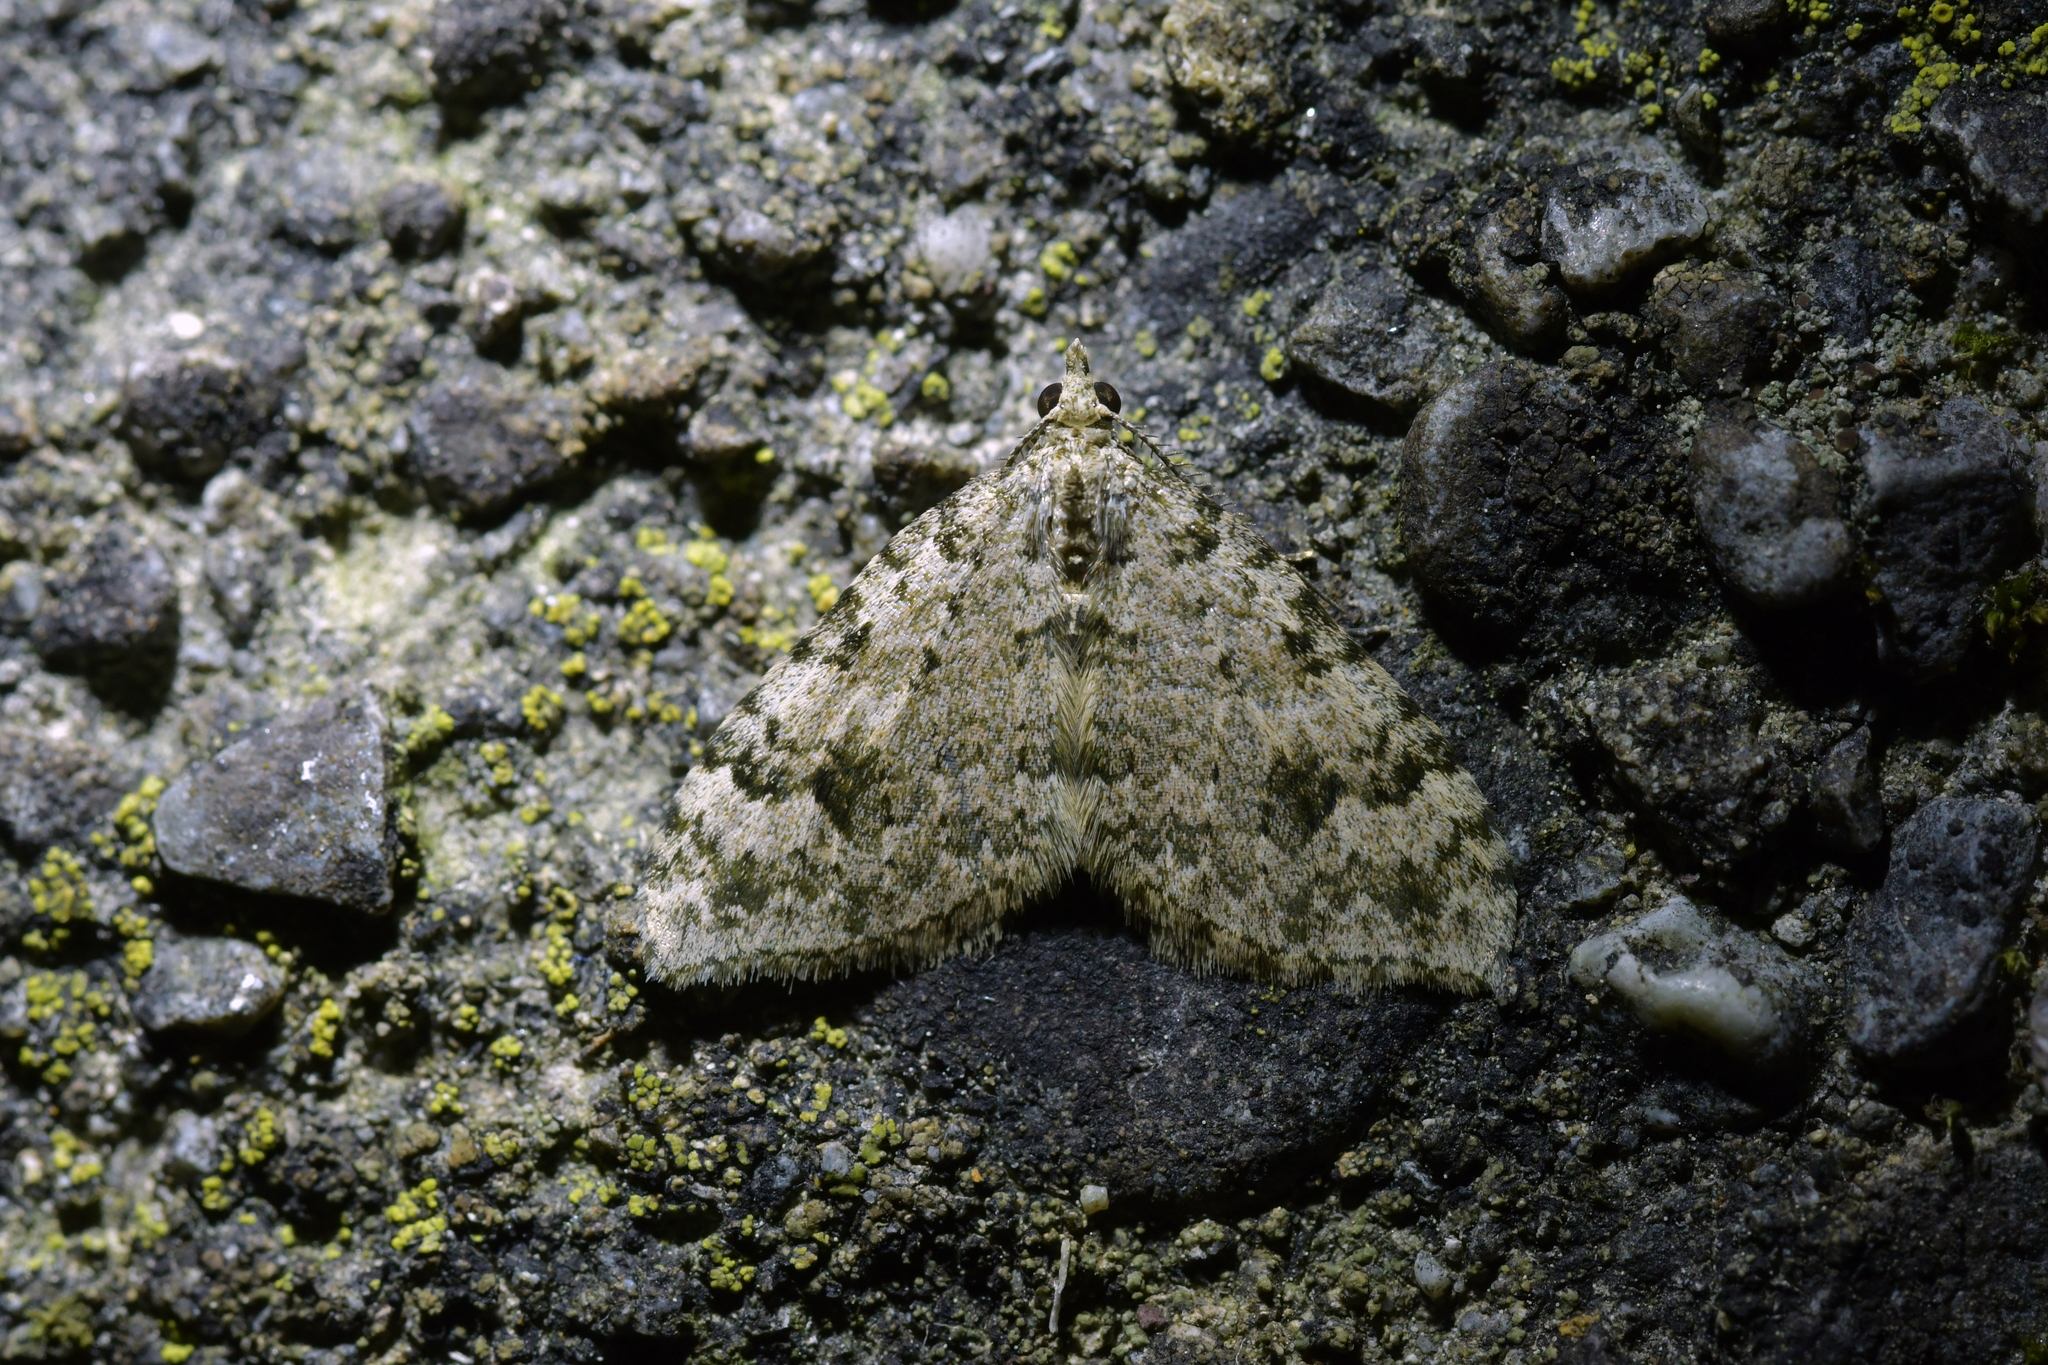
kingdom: Animalia
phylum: Arthropoda
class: Insecta
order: Lepidoptera
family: Geometridae
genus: Helastia
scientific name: Helastia cinerearia
